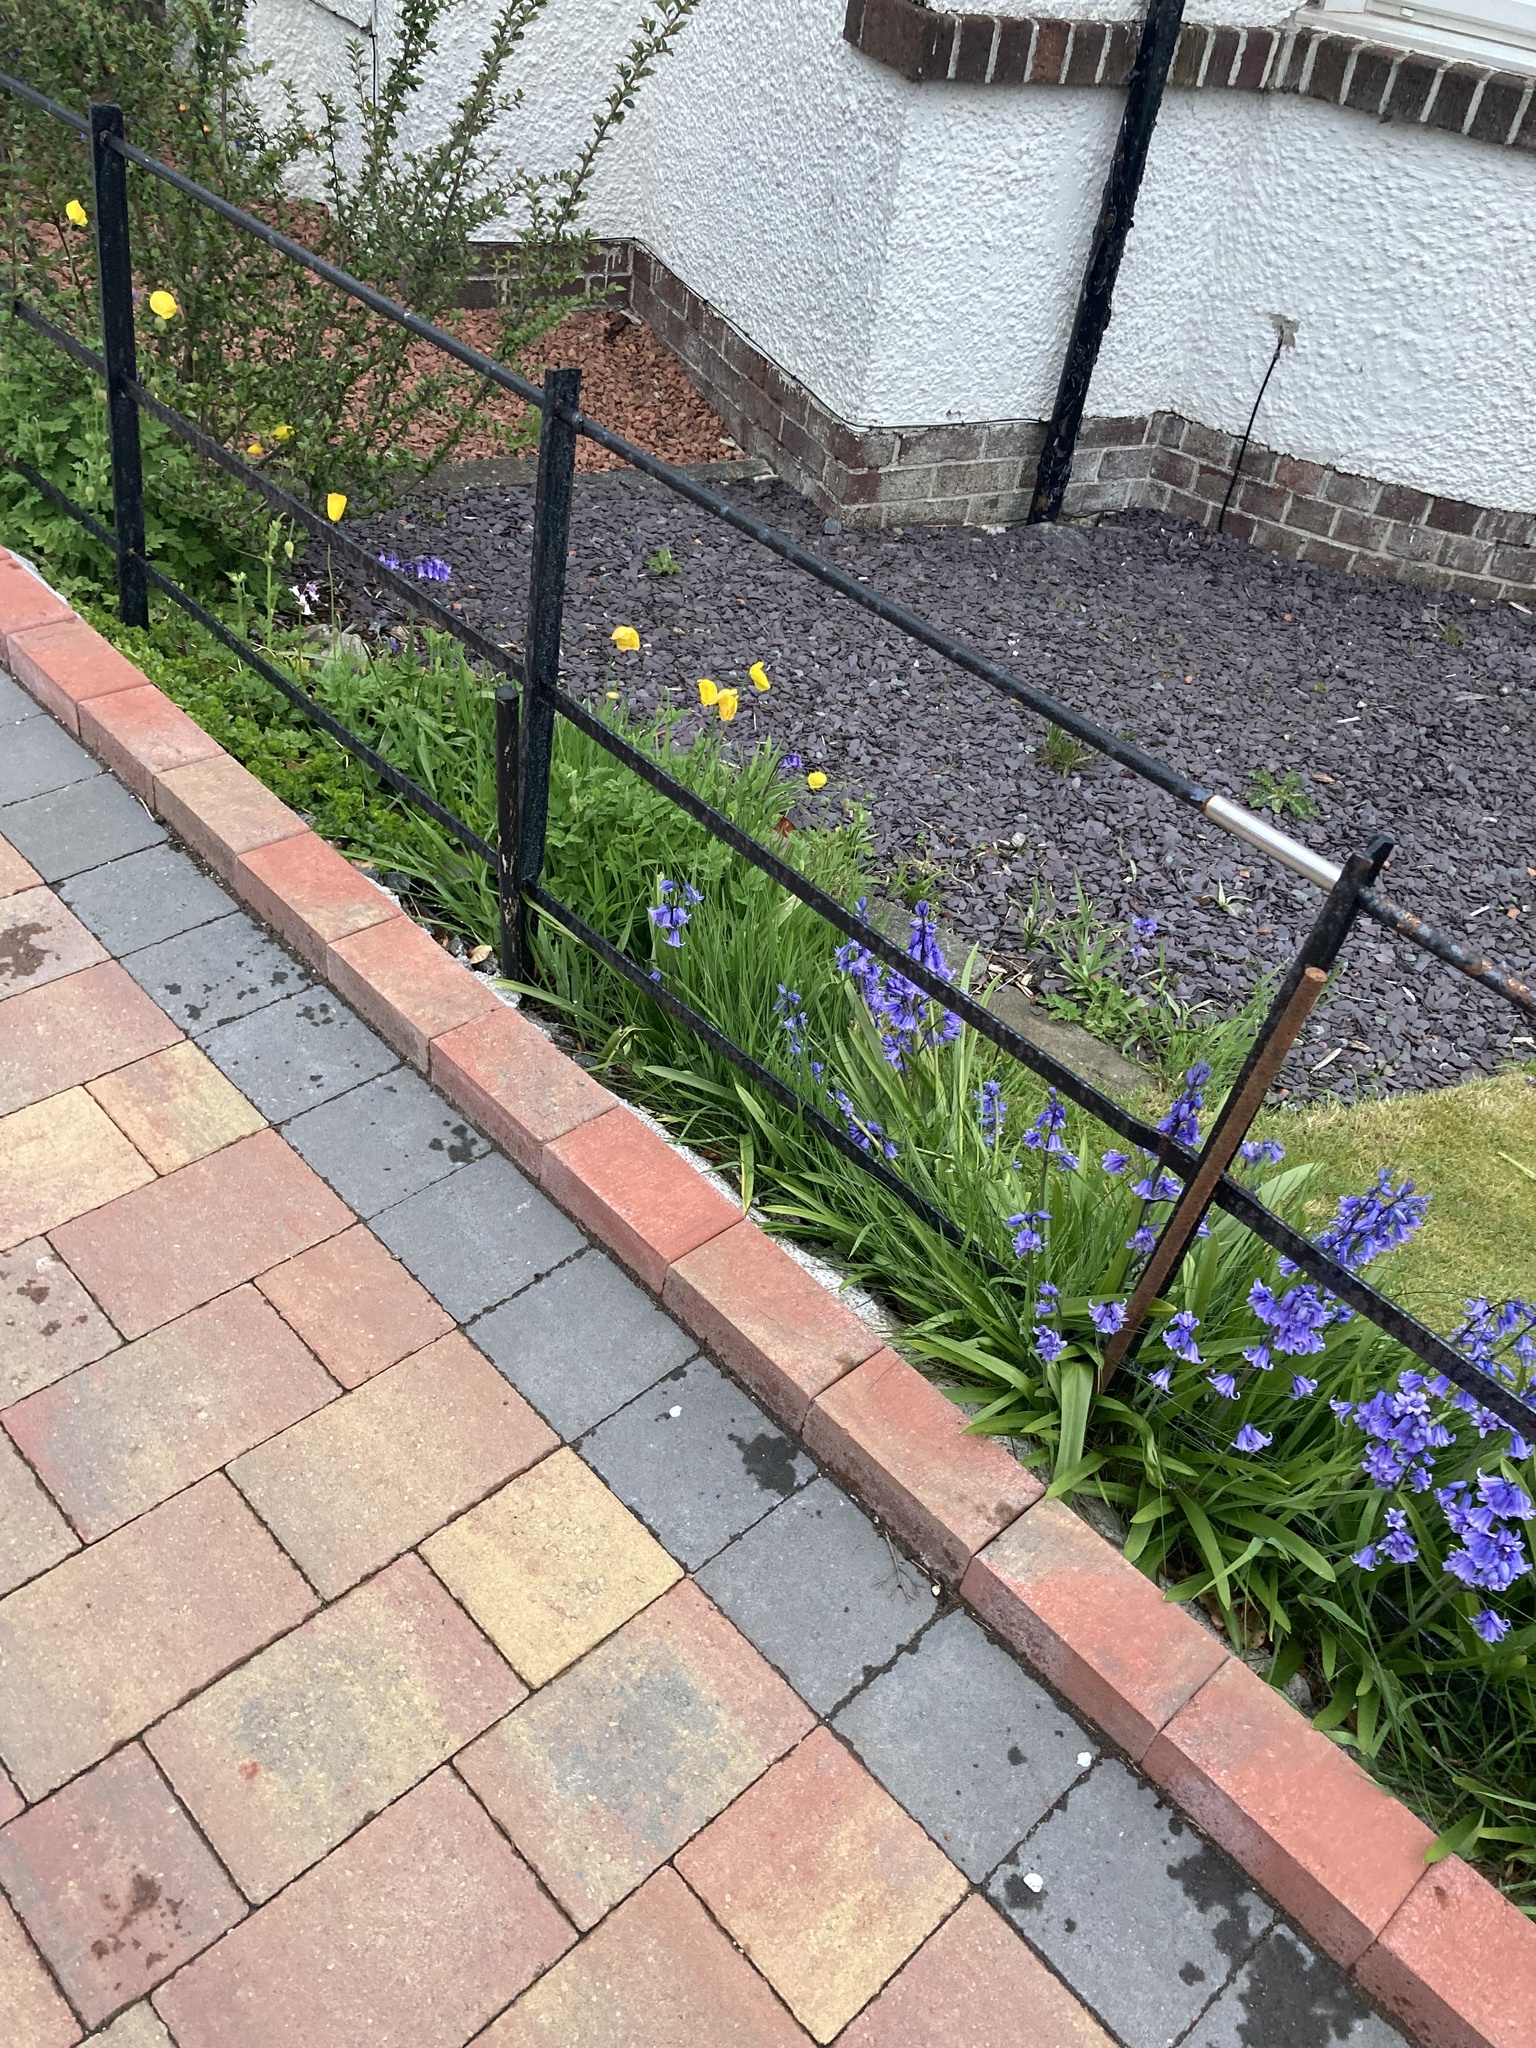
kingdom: Plantae
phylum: Tracheophyta
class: Magnoliopsida
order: Ranunculales
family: Papaveraceae
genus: Papaver
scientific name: Papaver cambricum
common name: Poppy
